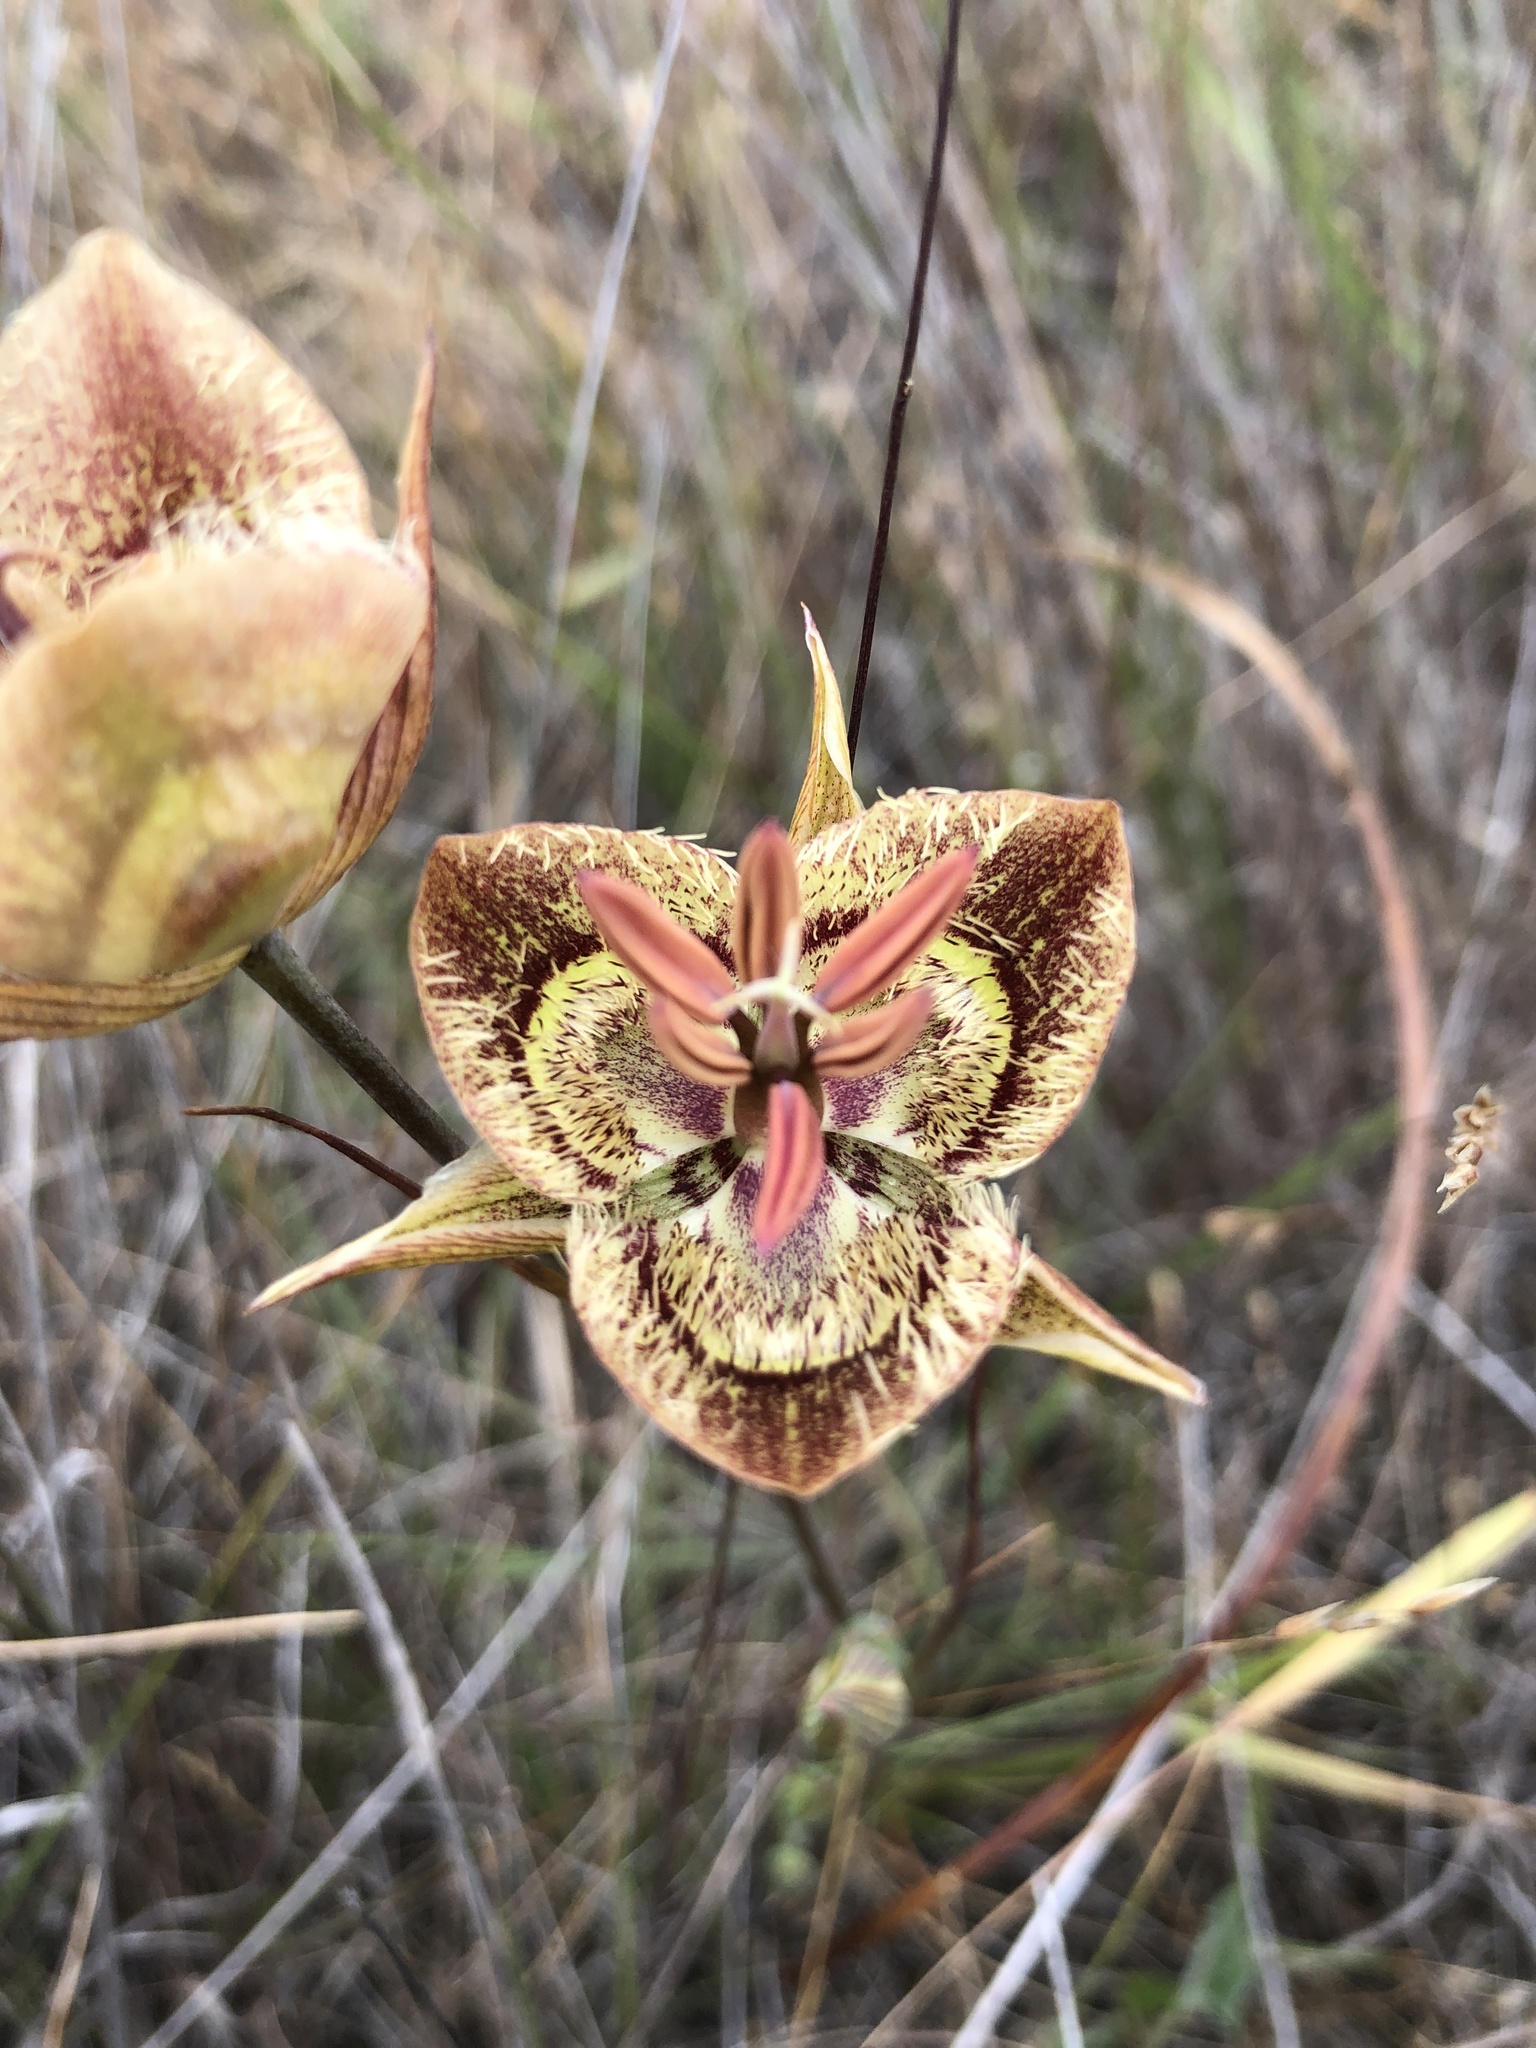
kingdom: Plantae
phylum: Tracheophyta
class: Liliopsida
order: Liliales
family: Liliaceae
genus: Calochortus
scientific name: Calochortus tiburonensis
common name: Tiburon mariposa-lily
